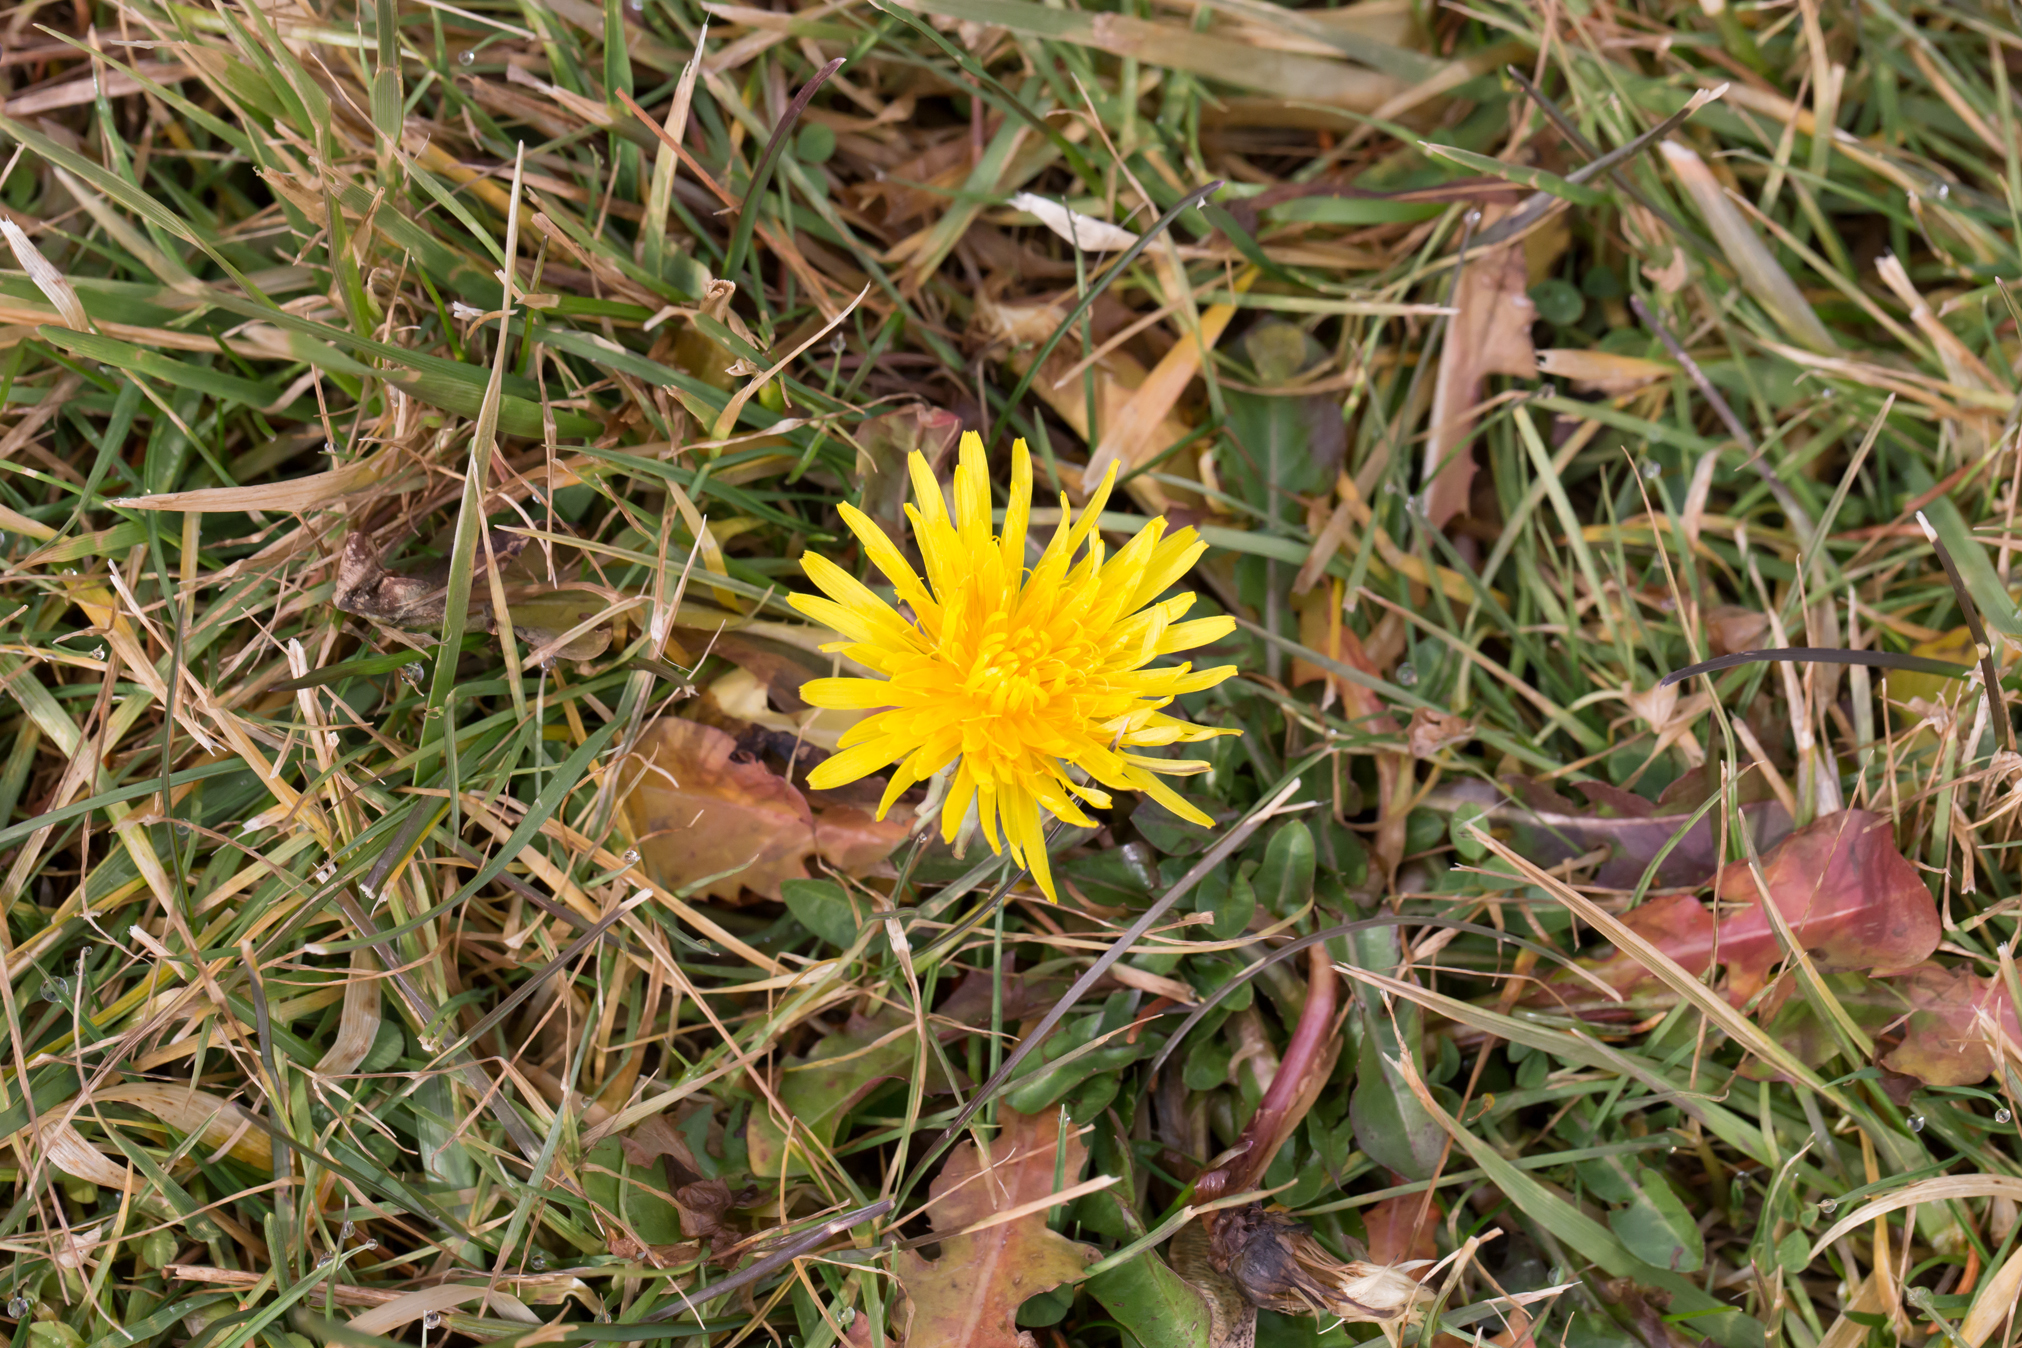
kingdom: Plantae
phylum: Tracheophyta
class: Magnoliopsida
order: Asterales
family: Asteraceae
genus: Taraxacum
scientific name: Taraxacum
